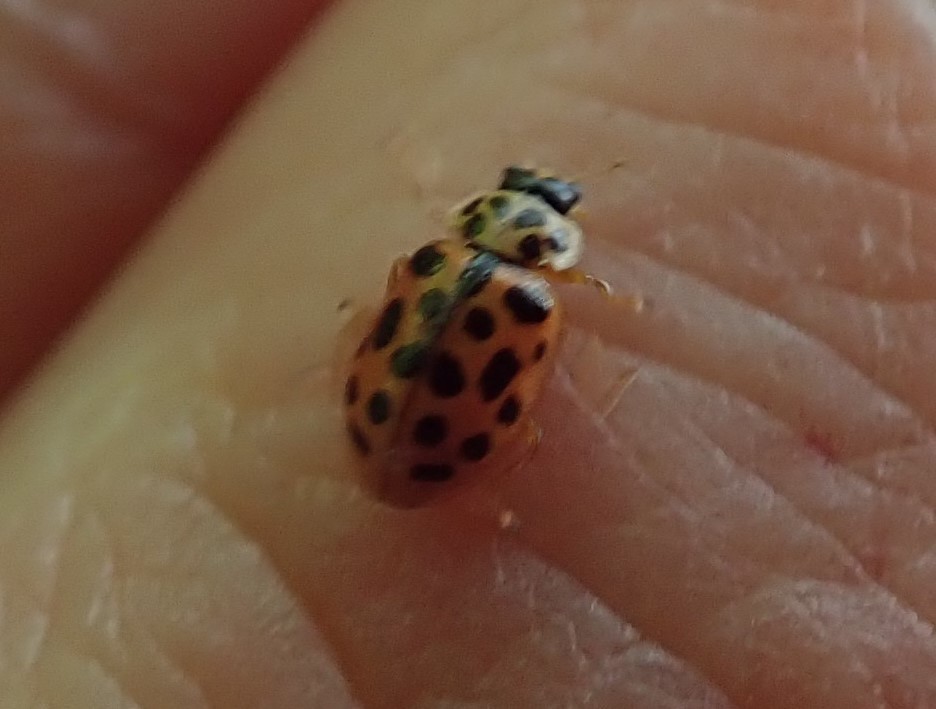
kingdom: Animalia
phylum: Arthropoda
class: Insecta
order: Coleoptera
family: Coccinellidae
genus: Anisosticta
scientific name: Anisosticta novemdecimpunctata
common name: Water ladybird
